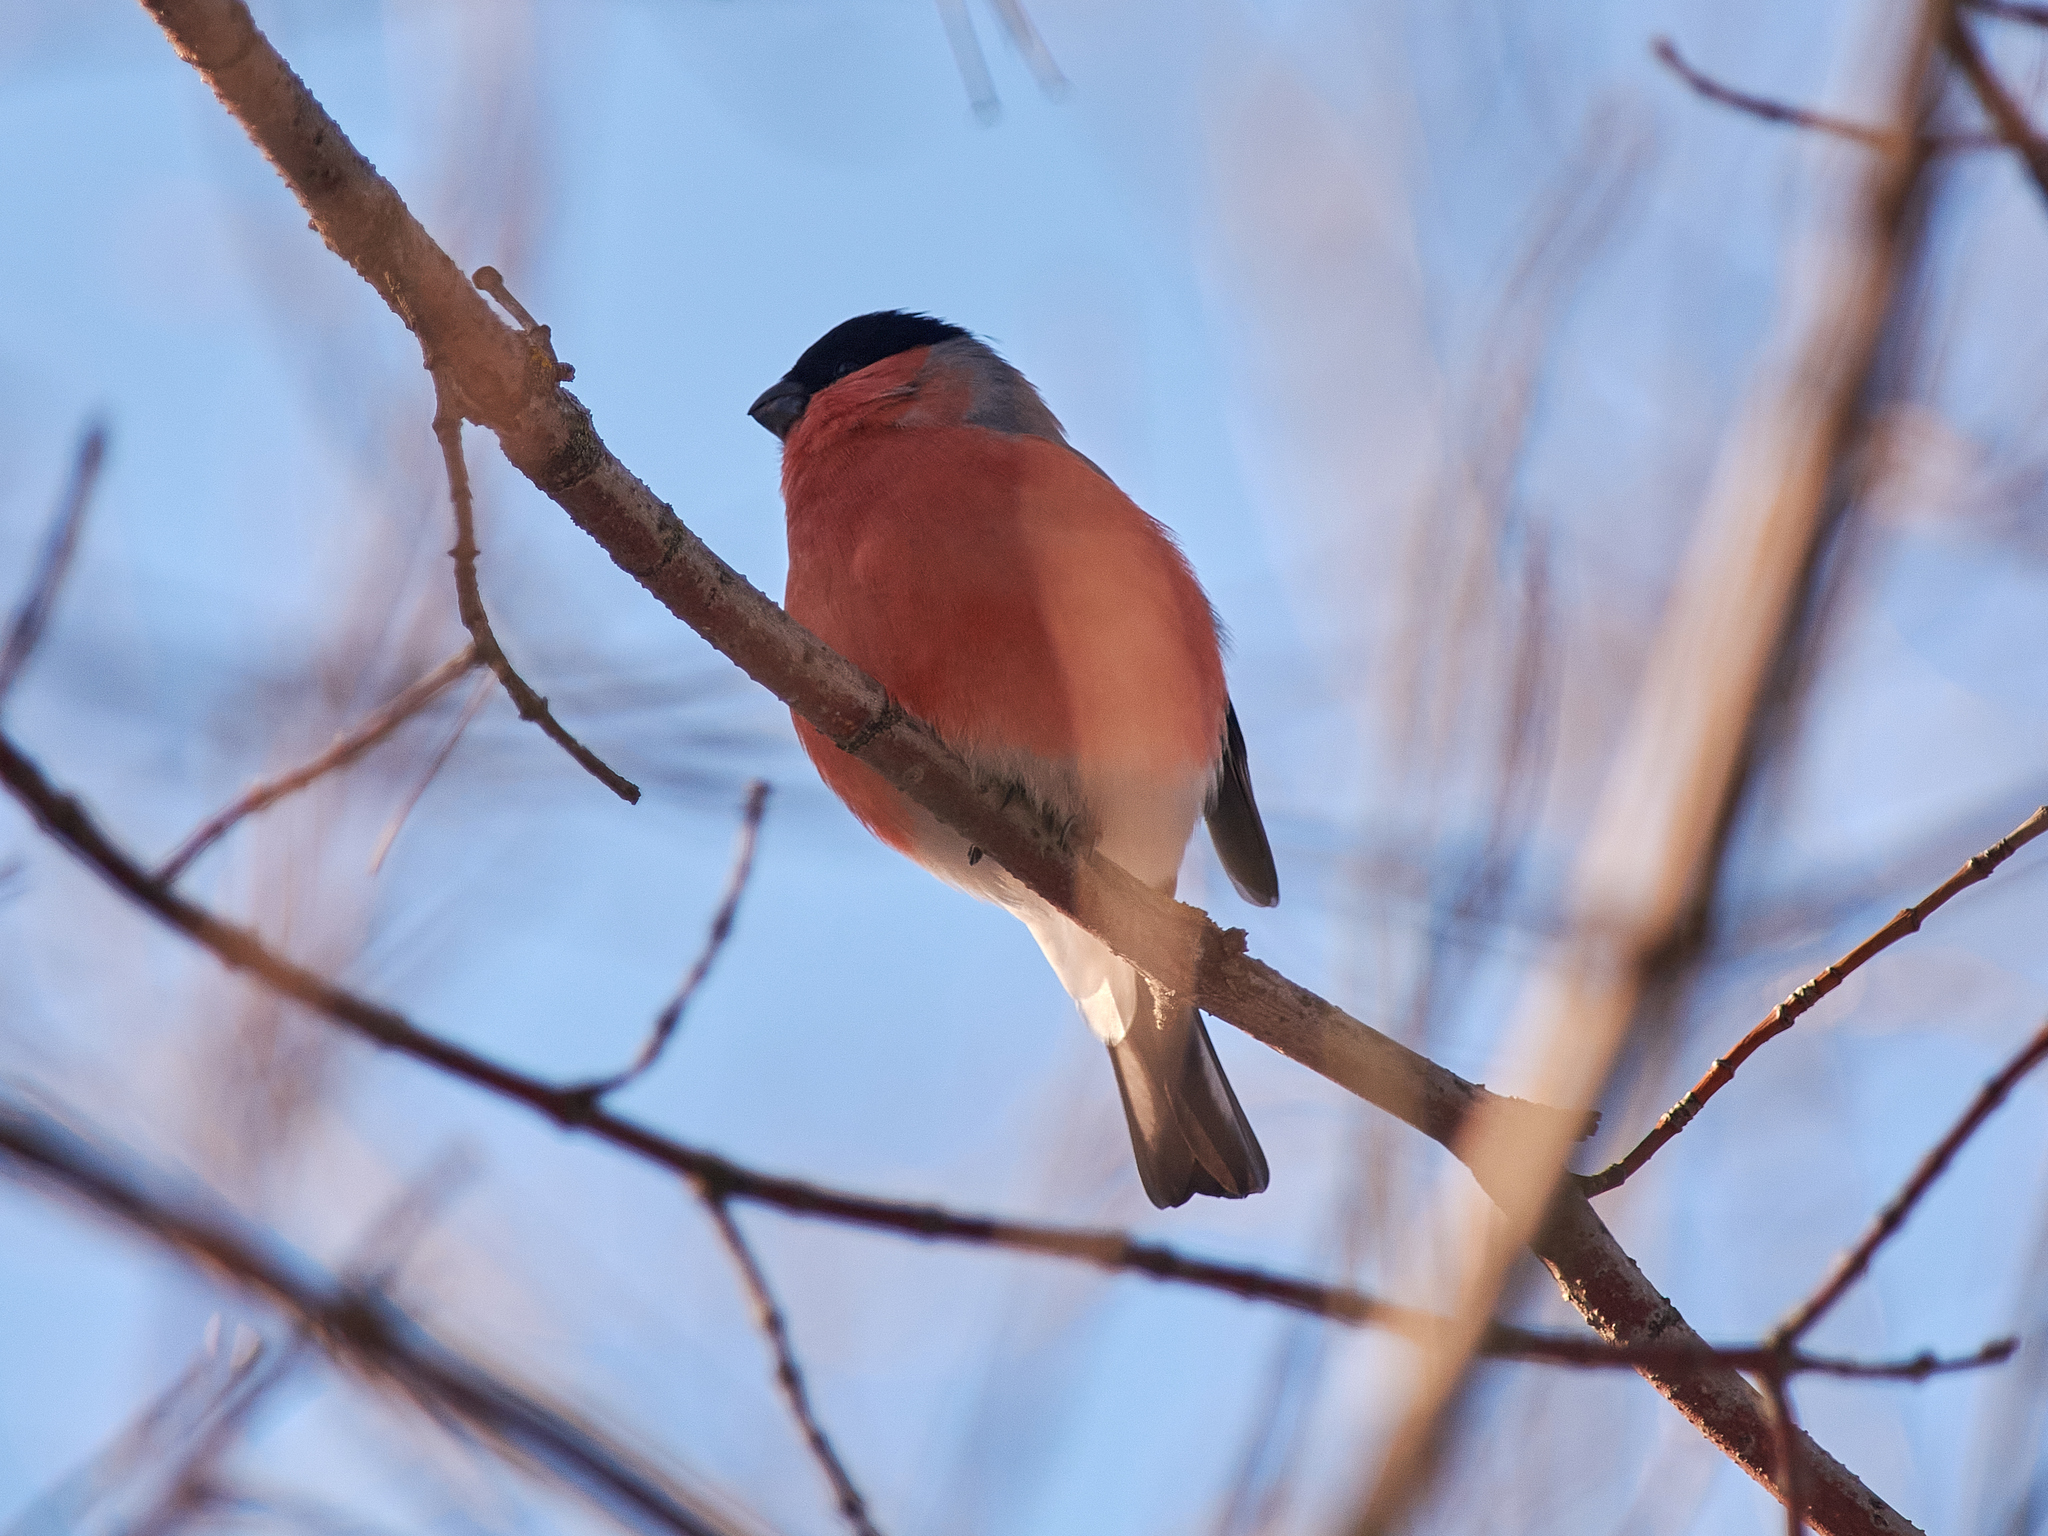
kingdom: Animalia
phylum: Chordata
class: Aves
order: Passeriformes
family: Fringillidae
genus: Pyrrhula
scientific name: Pyrrhula pyrrhula
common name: Eurasian bullfinch
